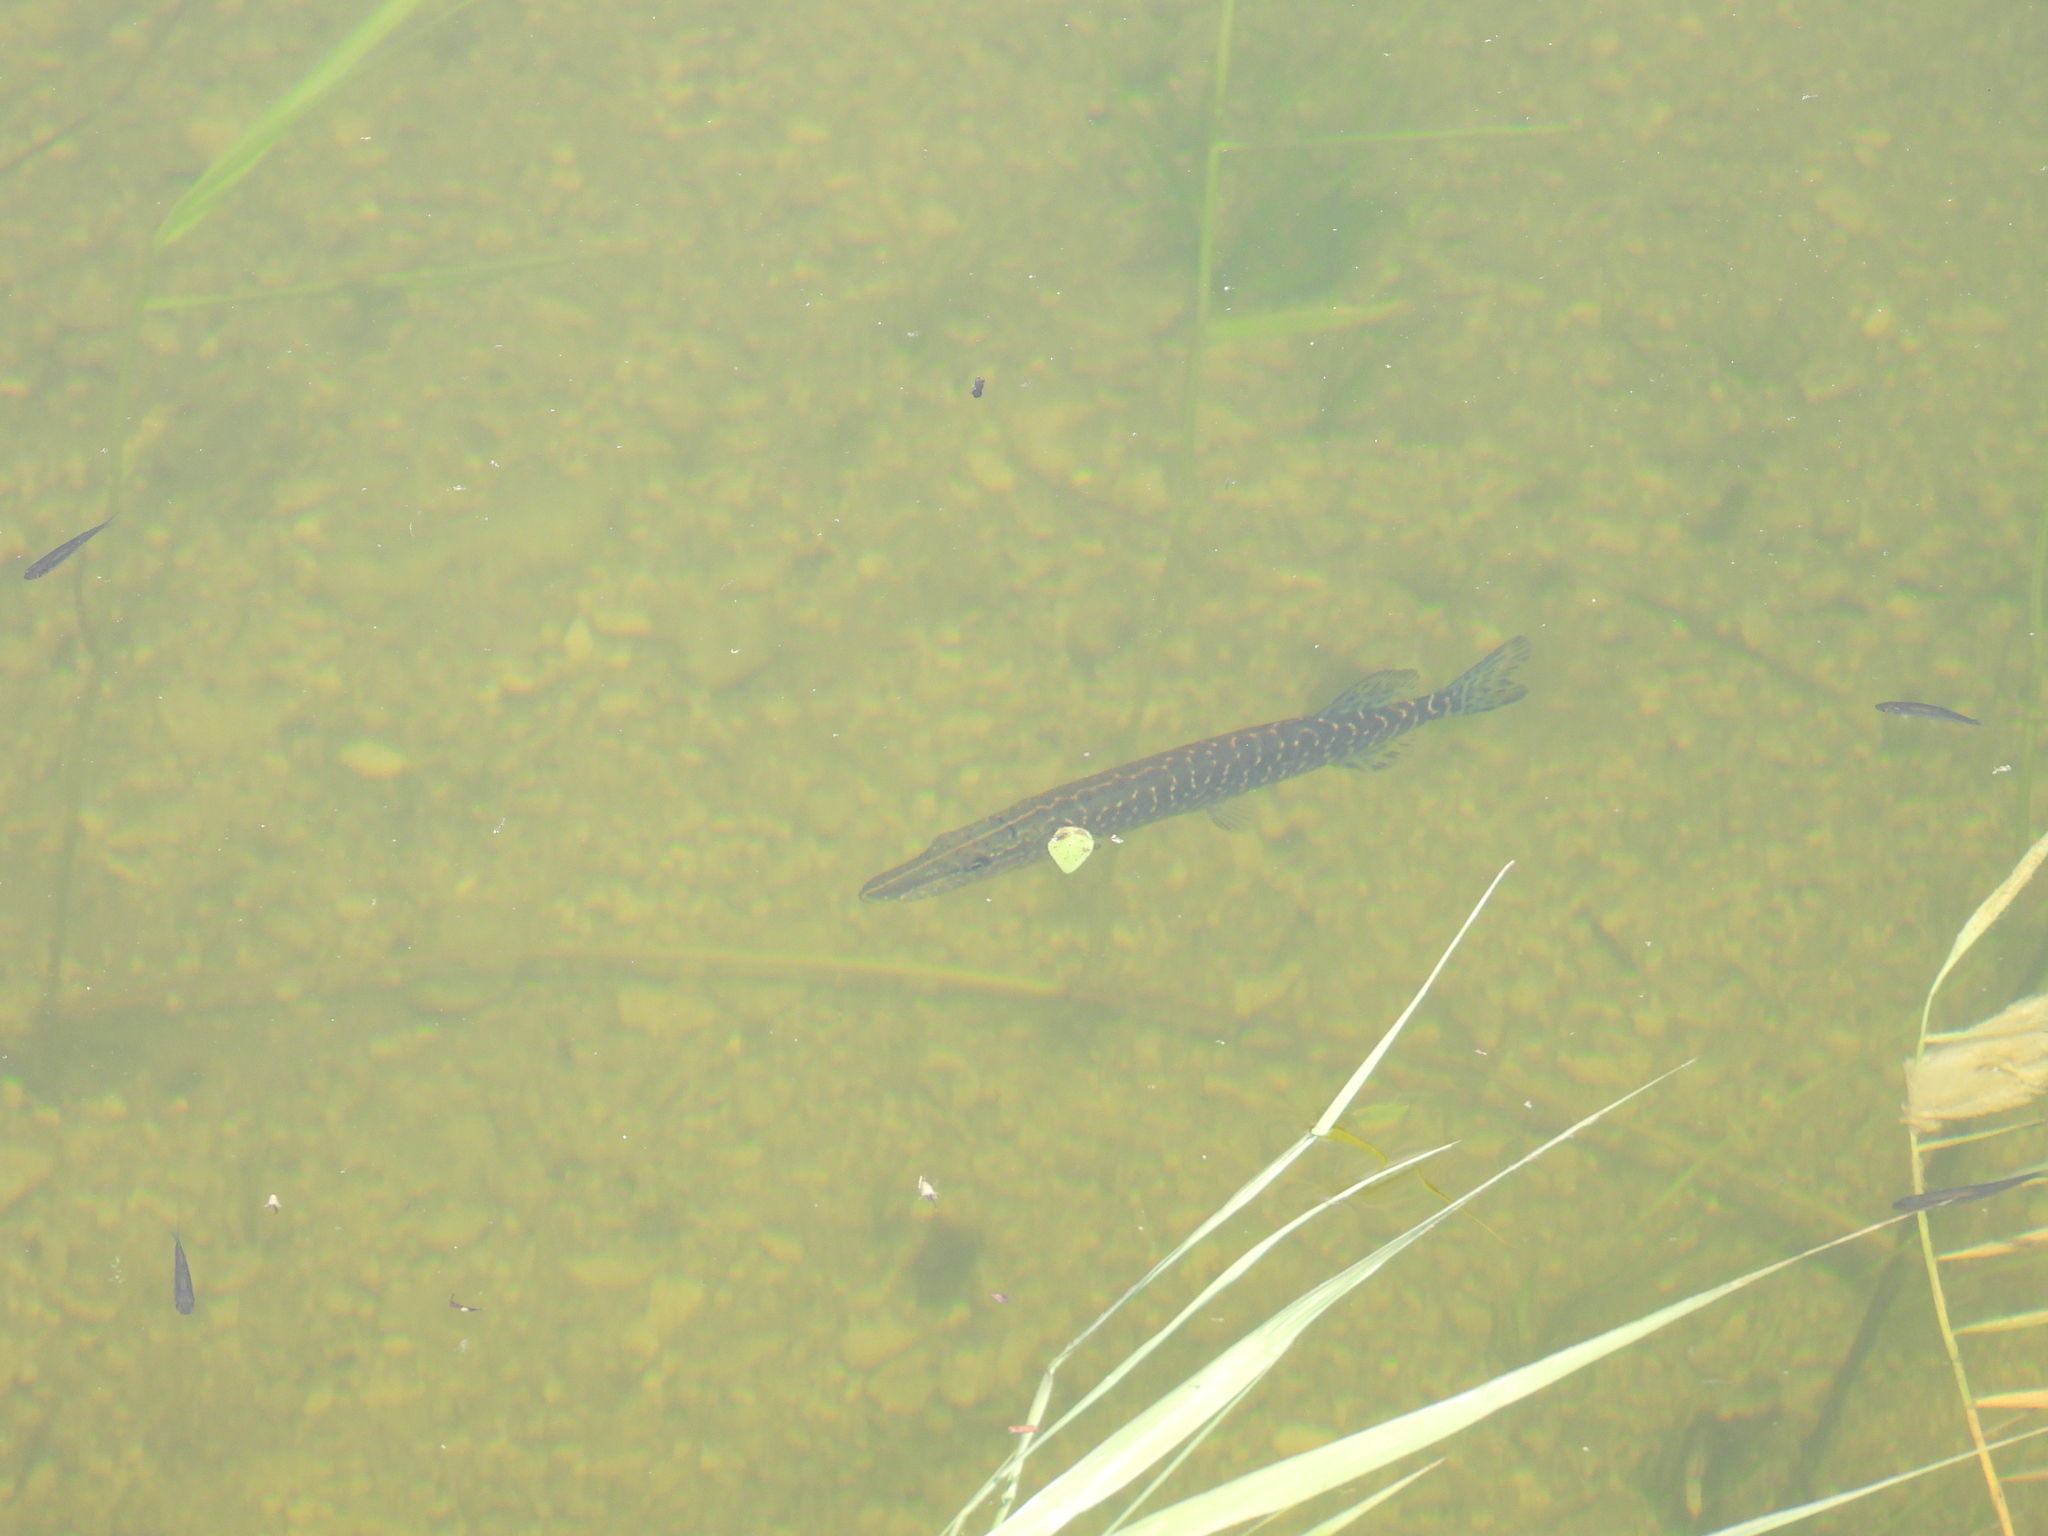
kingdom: Animalia
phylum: Chordata
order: Esociformes
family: Esocidae
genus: Esox
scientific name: Esox lucius
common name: Northern pike
